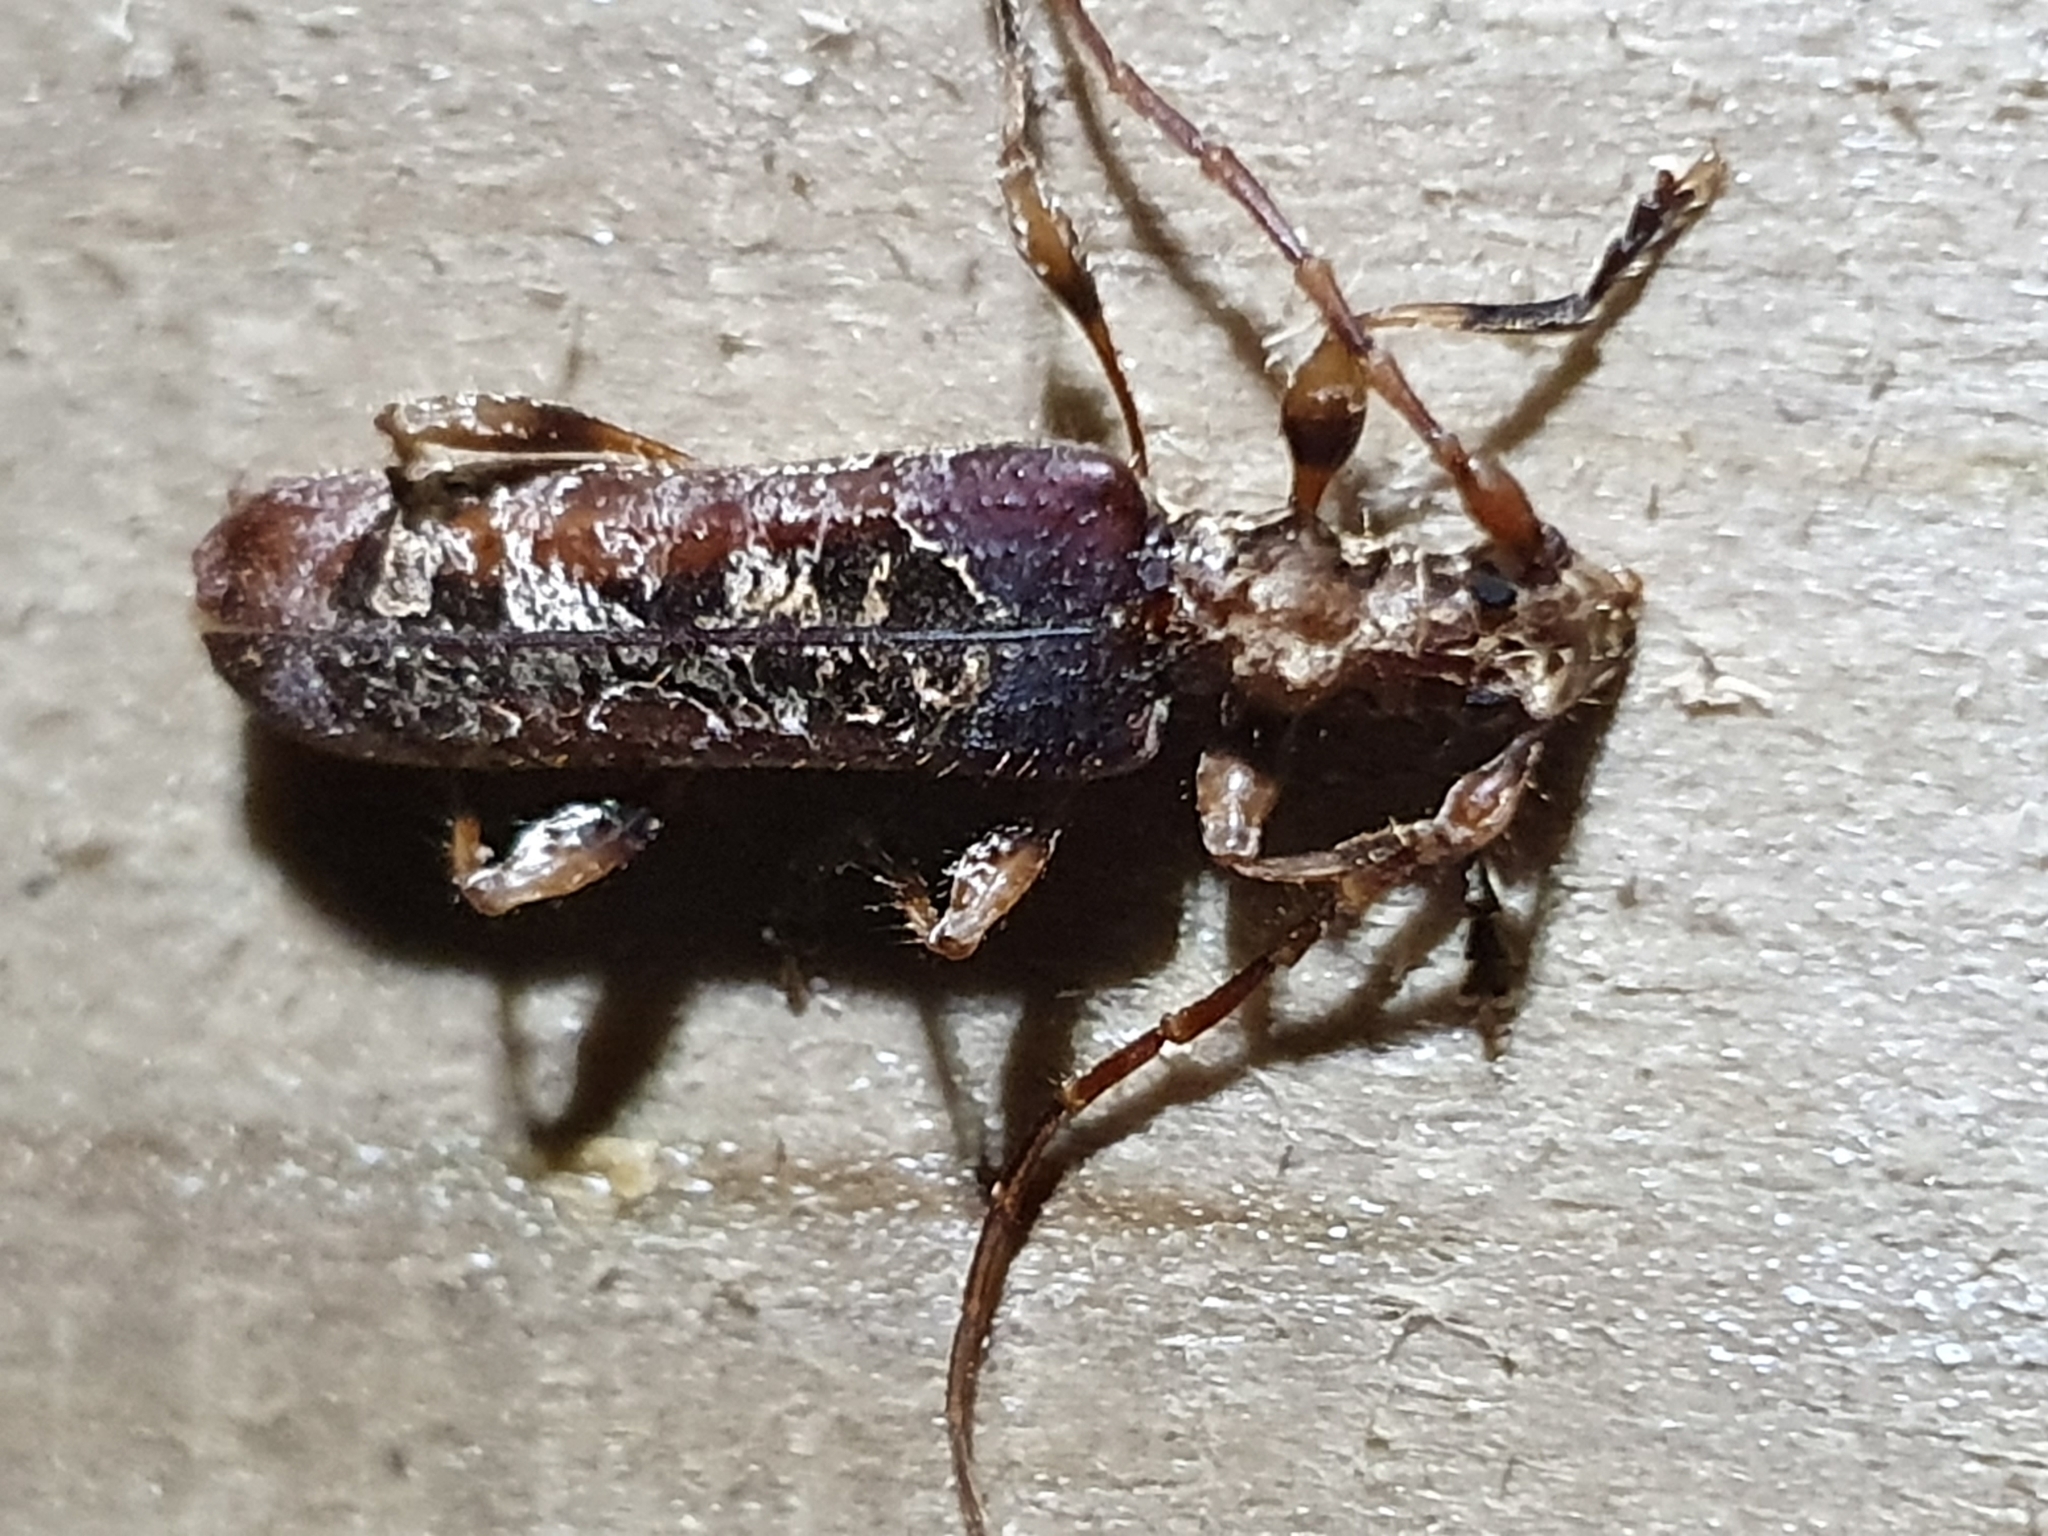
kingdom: Animalia
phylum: Arthropoda
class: Insecta
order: Coleoptera
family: Cerambycidae
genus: Tessaromma
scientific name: Tessaromma undatum
